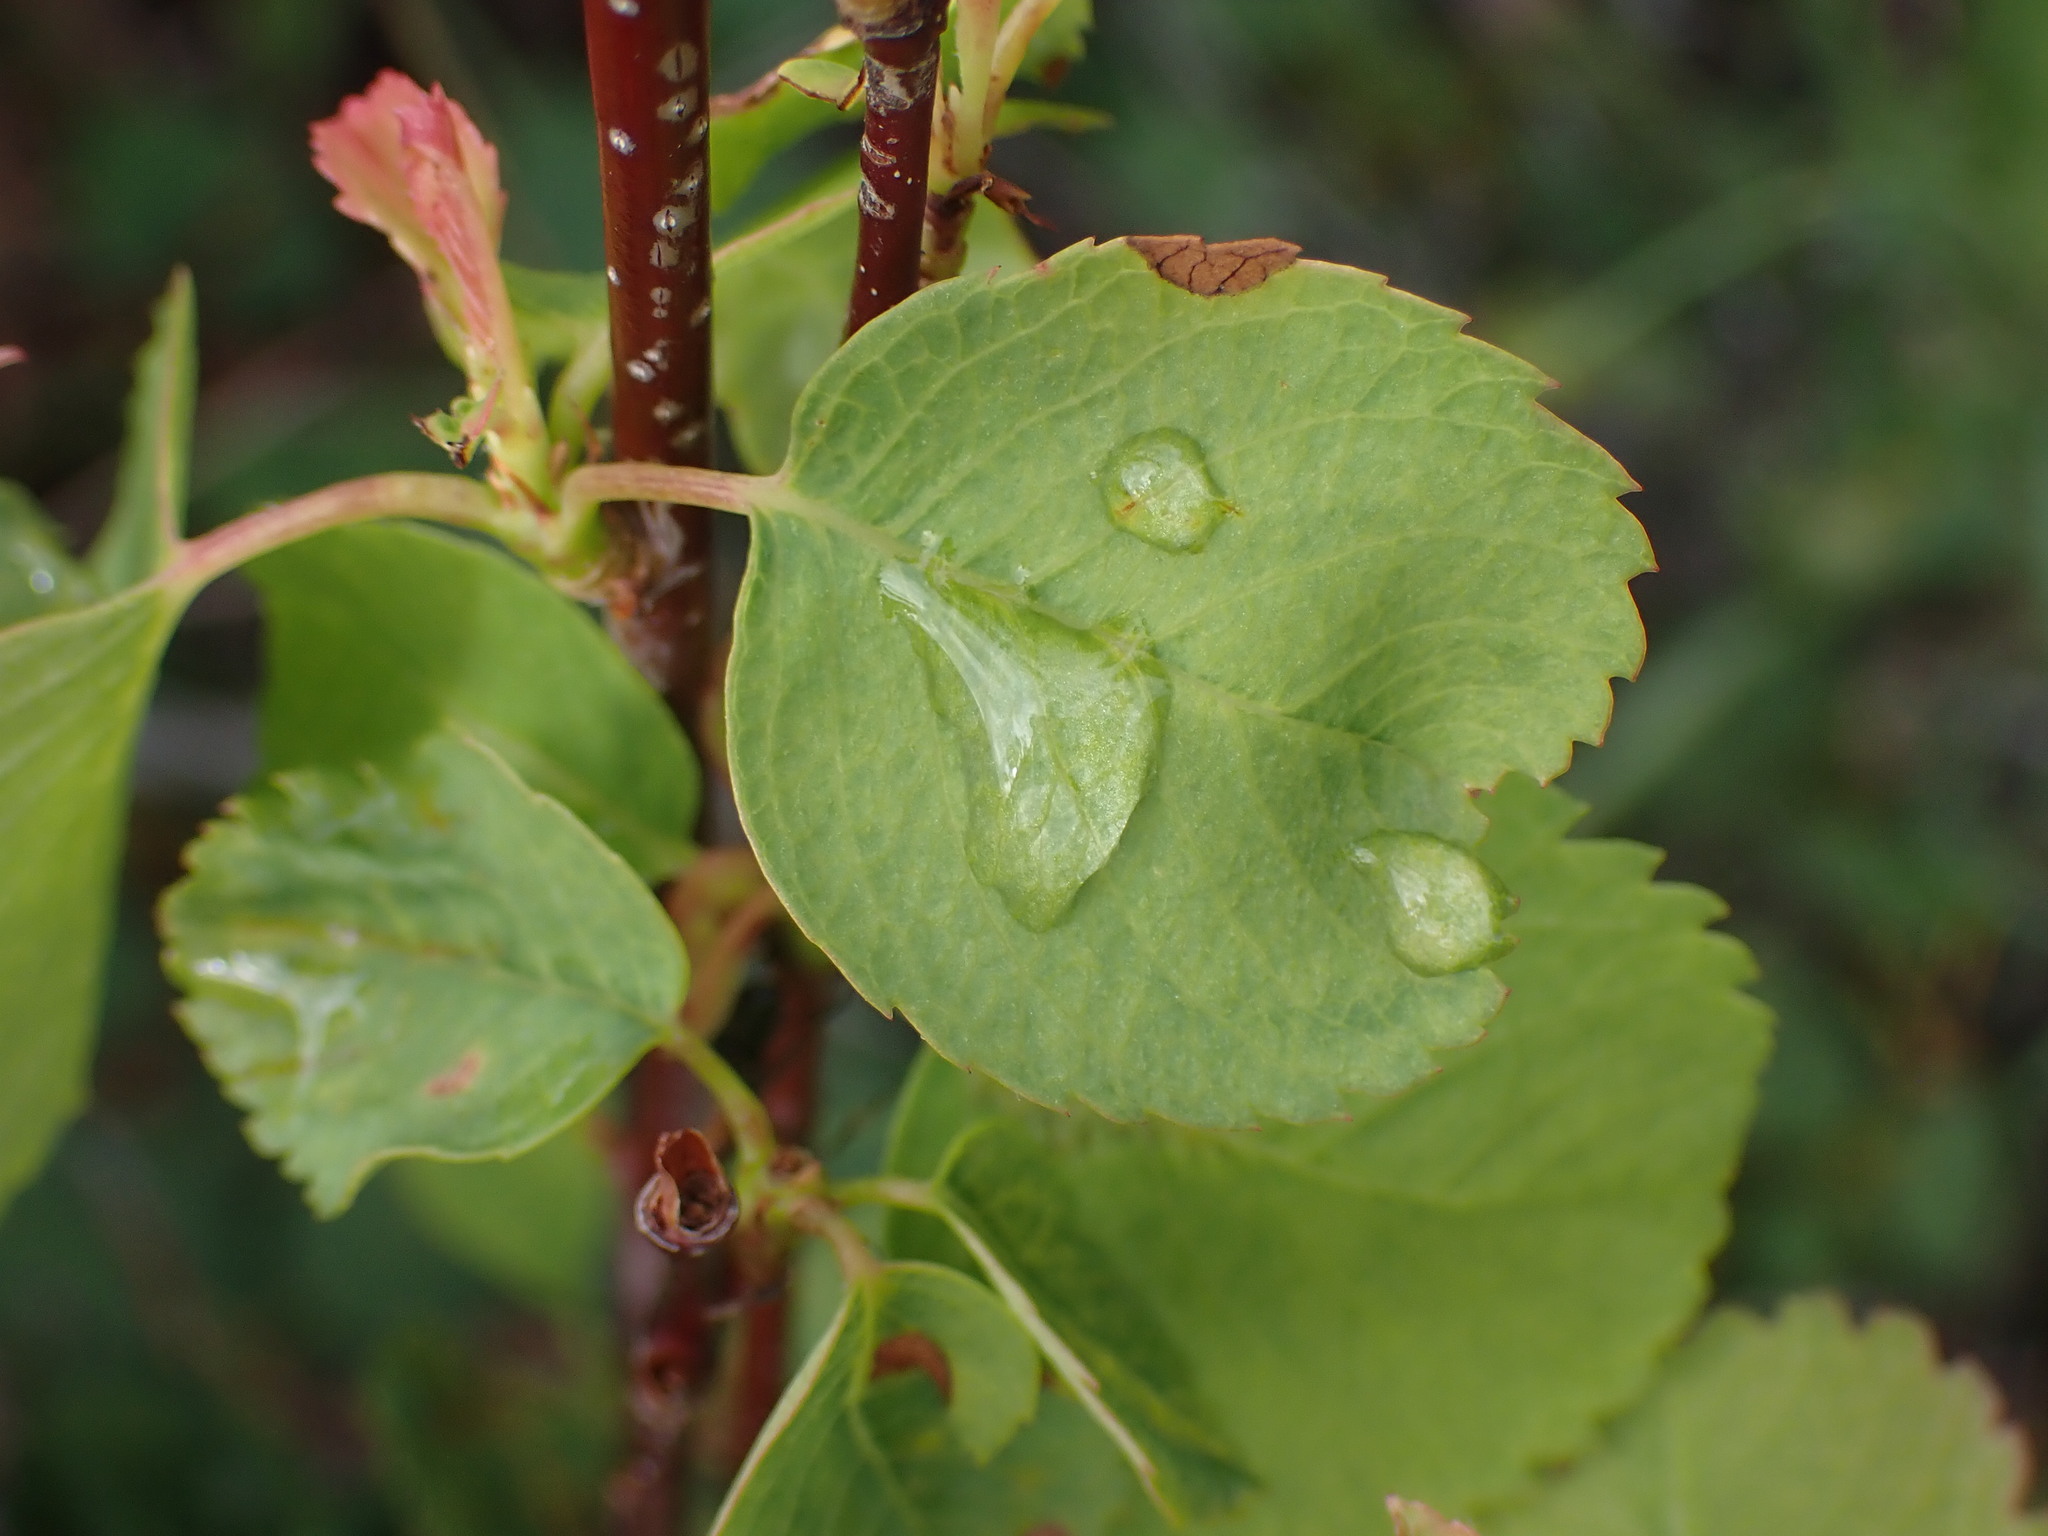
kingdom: Plantae
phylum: Tracheophyta
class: Magnoliopsida
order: Rosales
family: Rosaceae
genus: Amelanchier
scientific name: Amelanchier alnifolia
